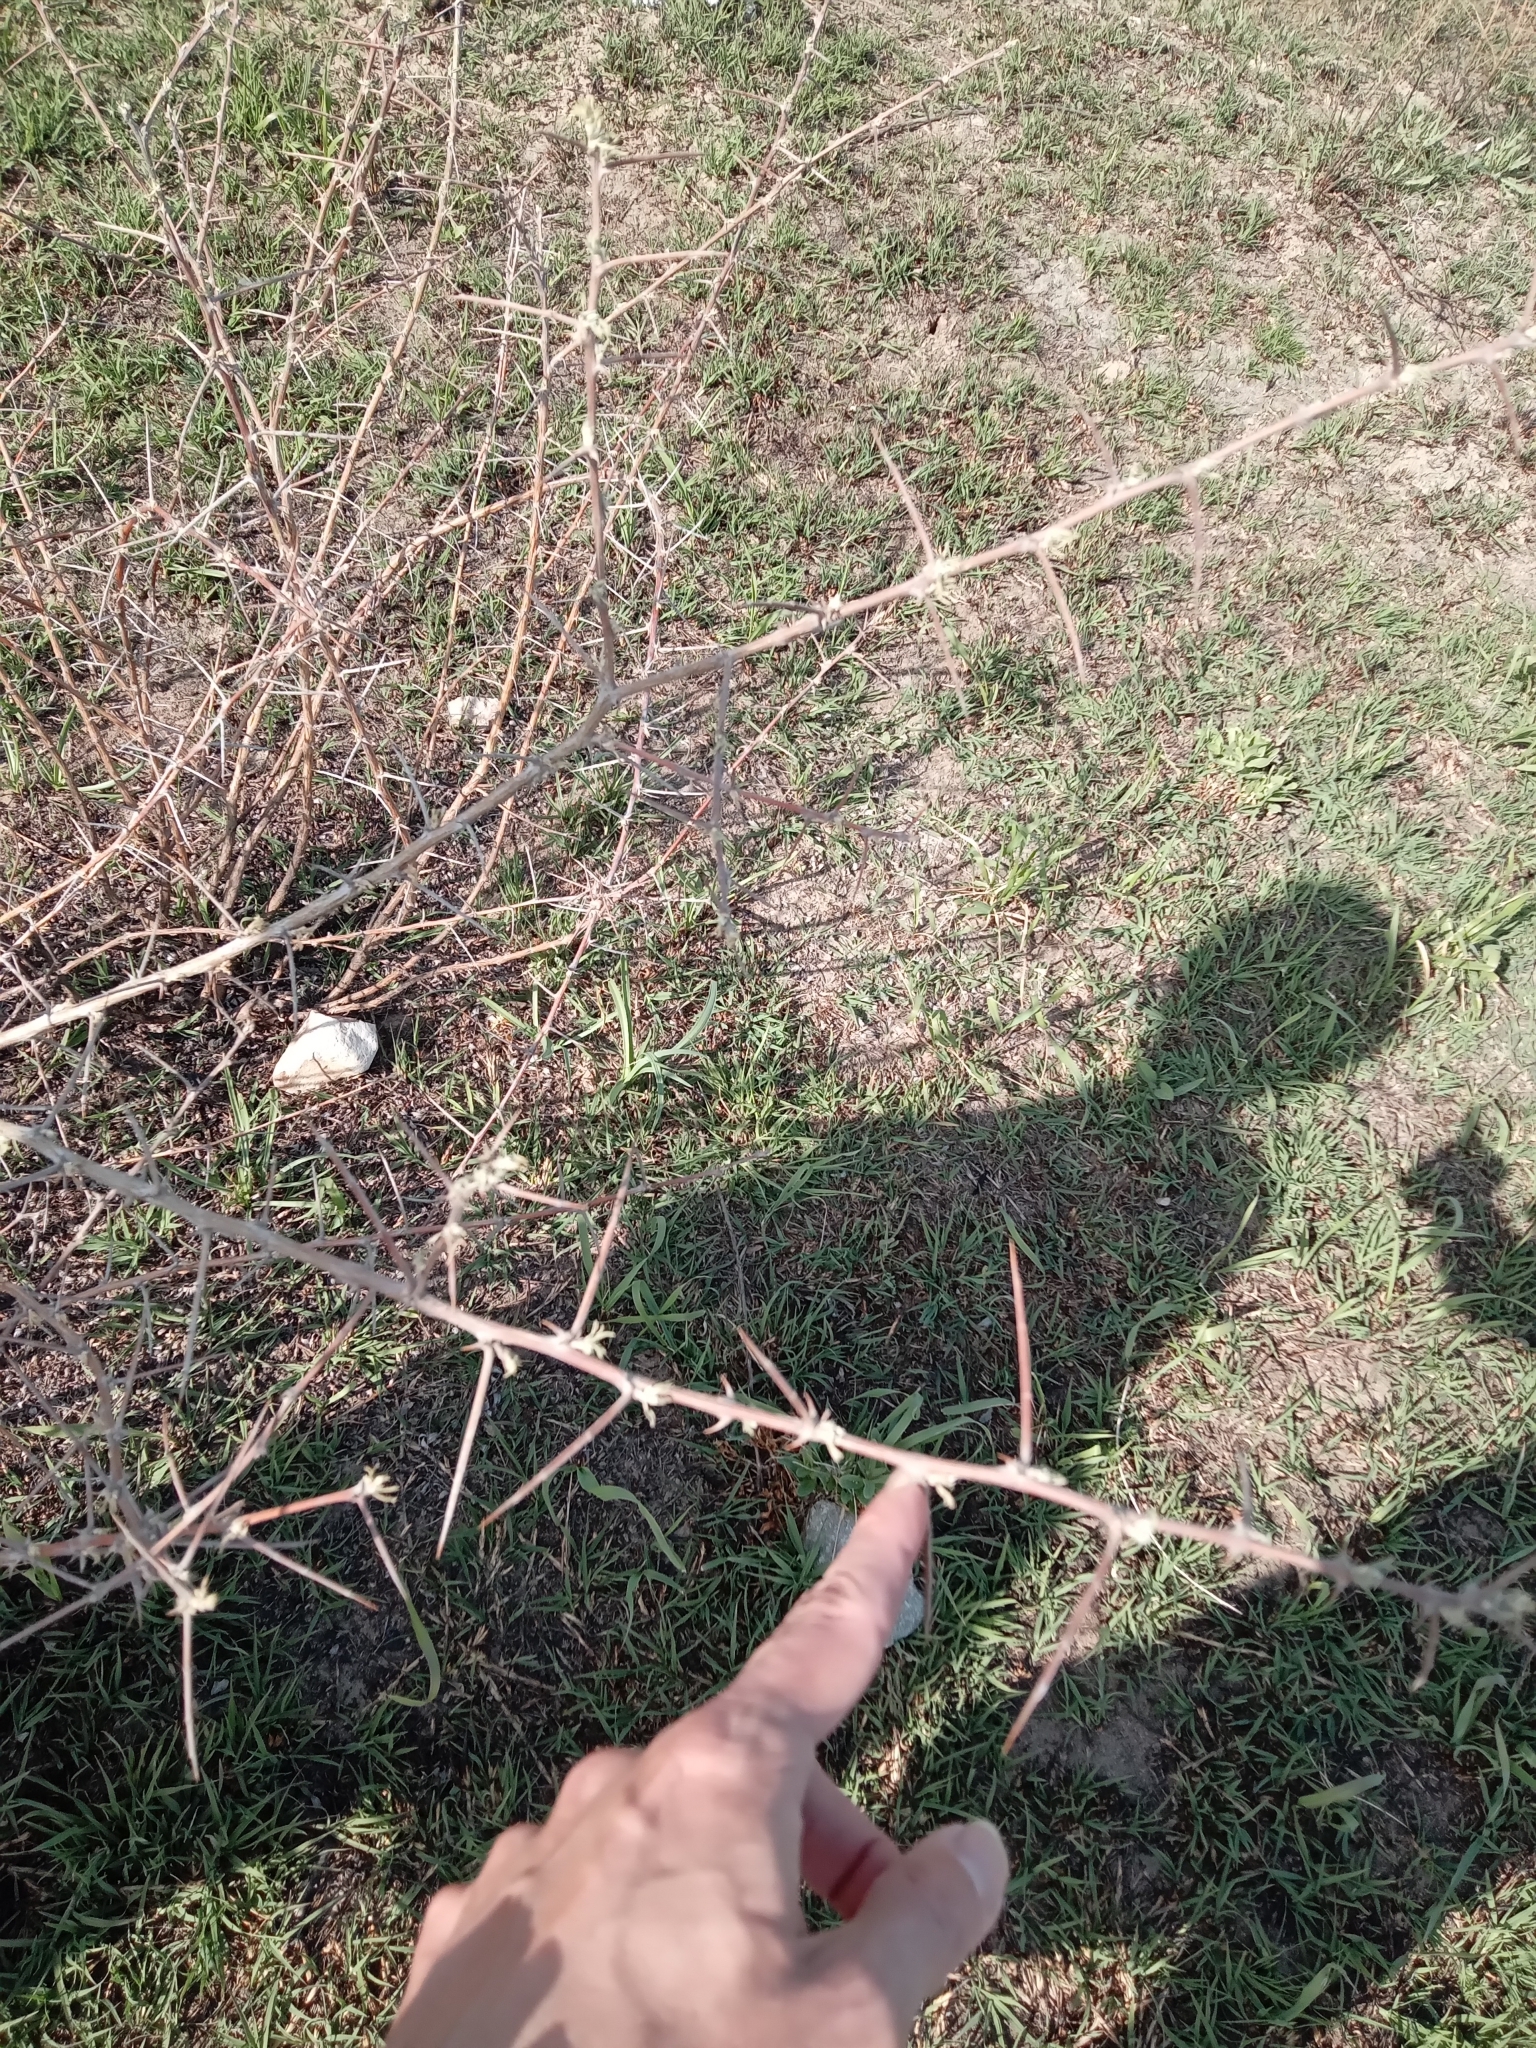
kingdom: Plantae
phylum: Tracheophyta
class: Magnoliopsida
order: Fabales
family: Fabaceae
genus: Caragana
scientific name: Caragana halodendron
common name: Siberian salt-tree
